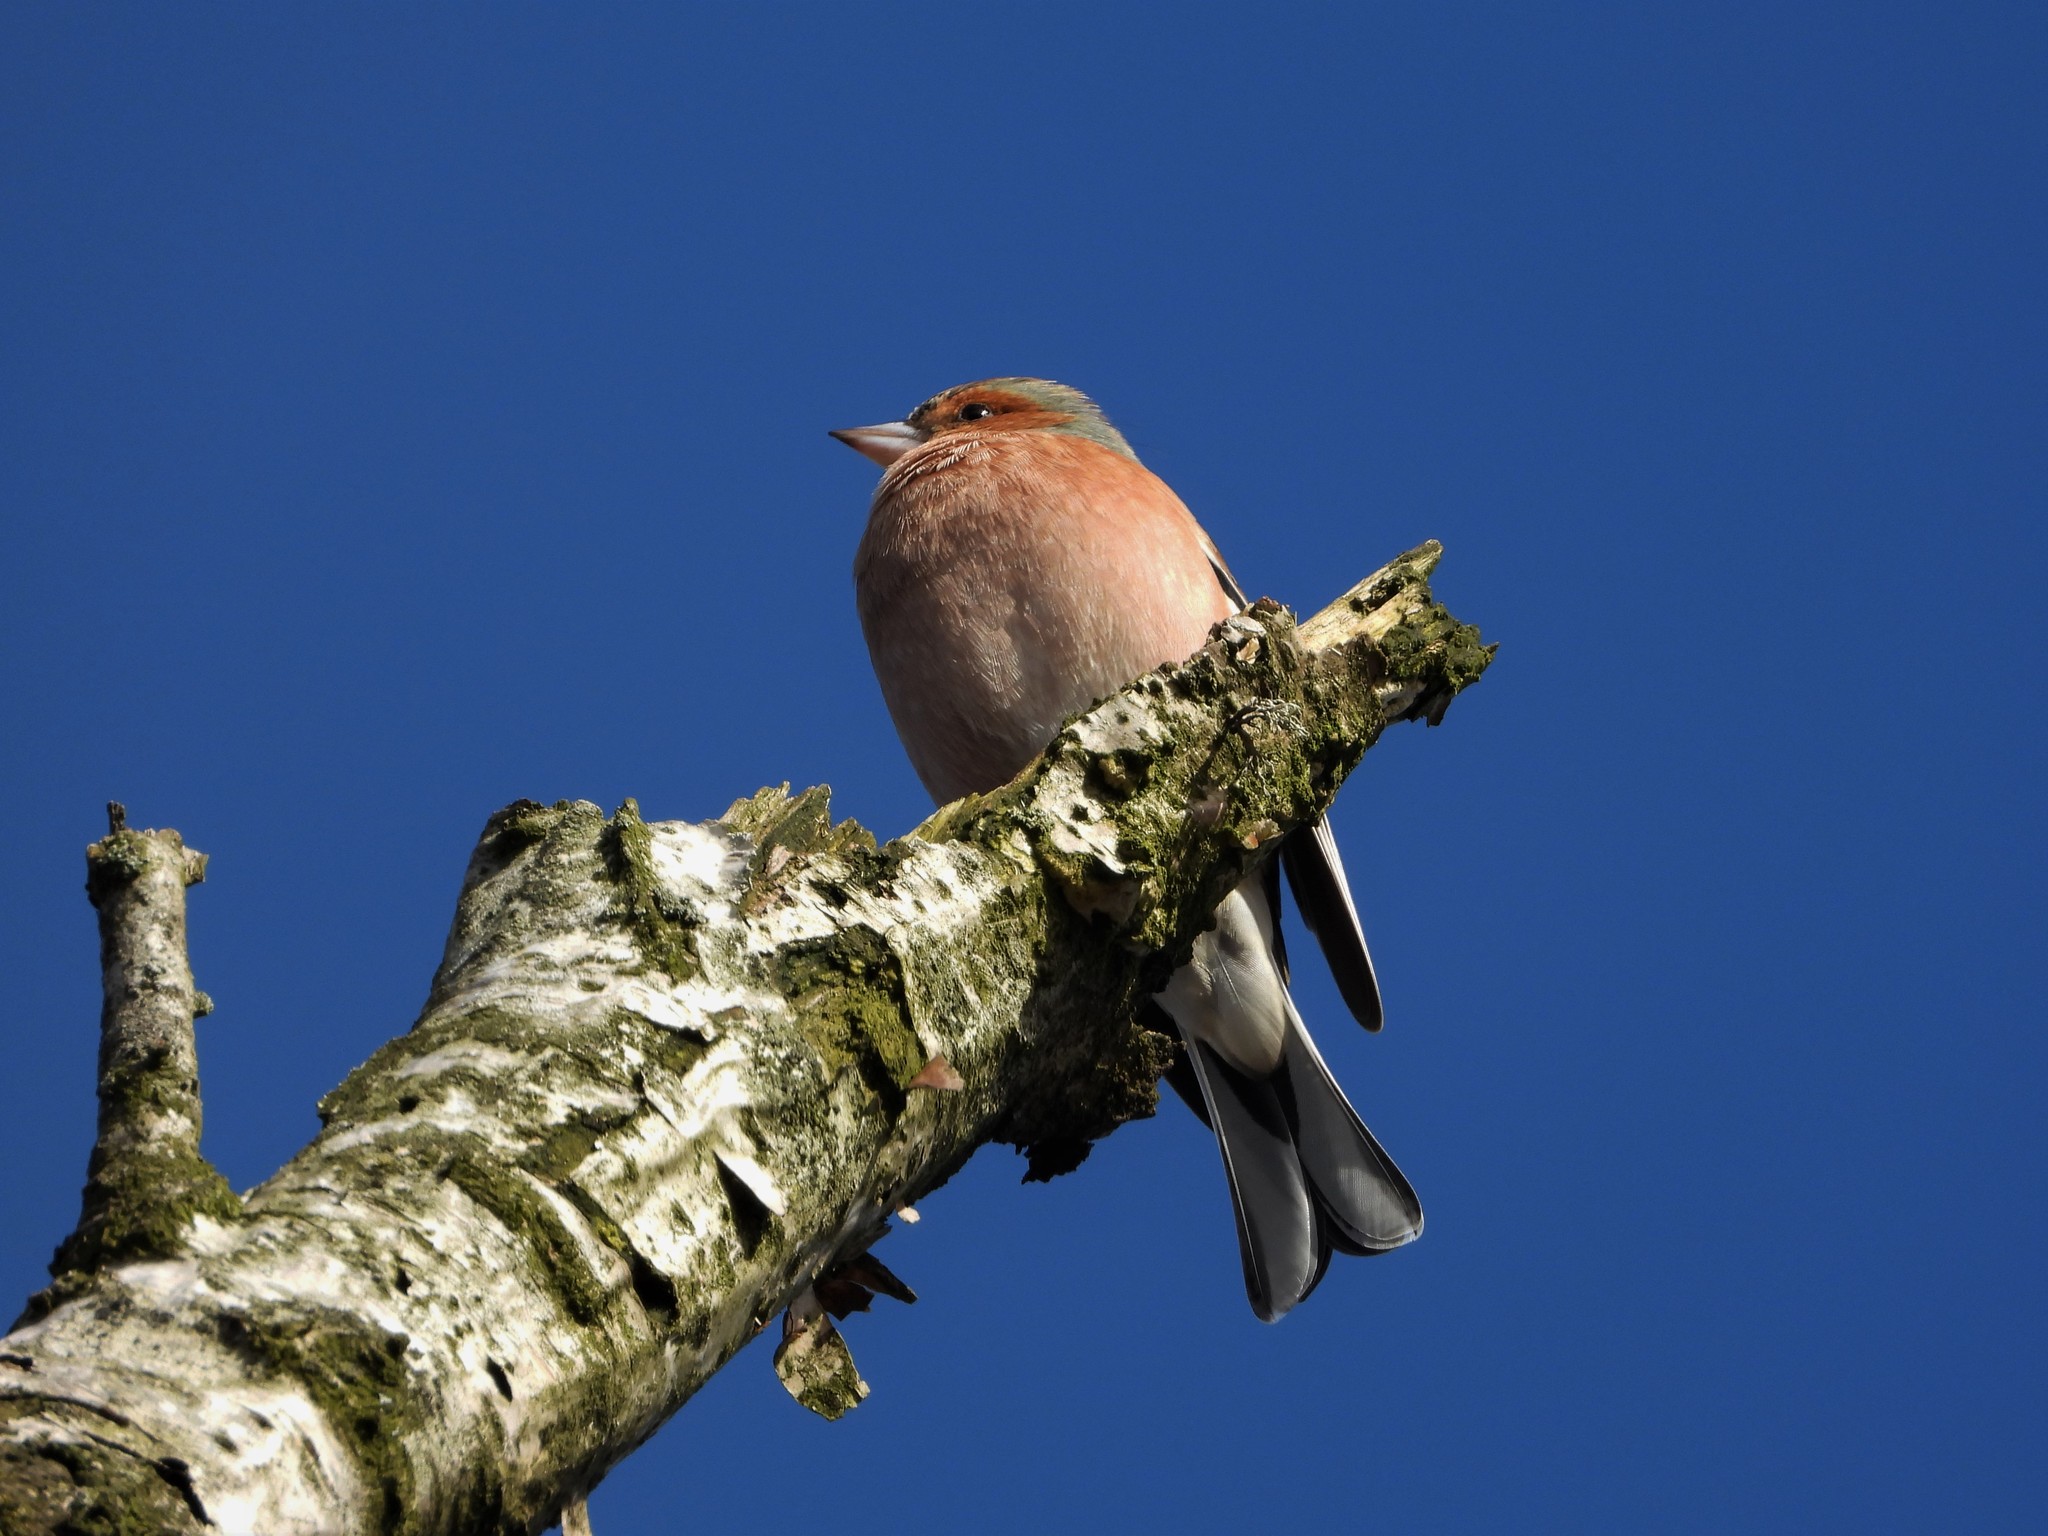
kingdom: Animalia
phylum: Chordata
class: Aves
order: Passeriformes
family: Fringillidae
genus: Fringilla
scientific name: Fringilla coelebs
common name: Common chaffinch
